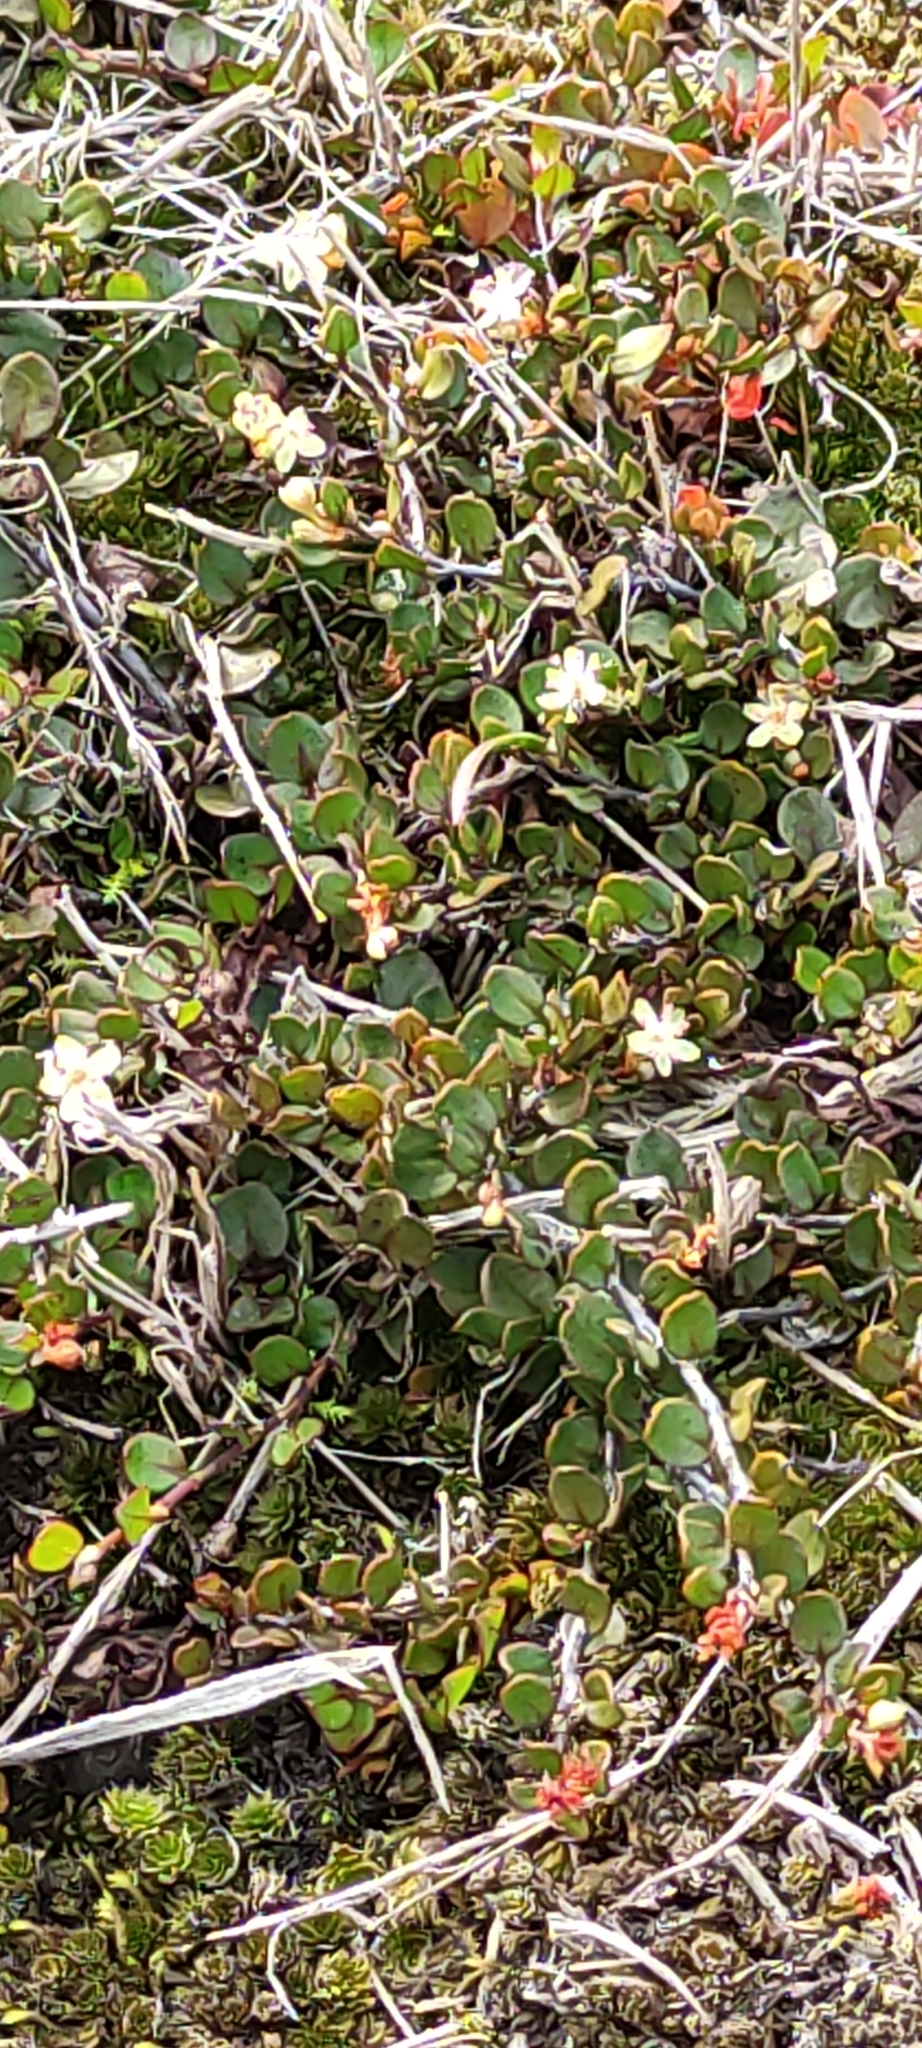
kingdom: Plantae
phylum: Tracheophyta
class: Magnoliopsida
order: Caryophyllales
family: Polygonaceae
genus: Muehlenbeckia
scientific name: Muehlenbeckia axillaris
